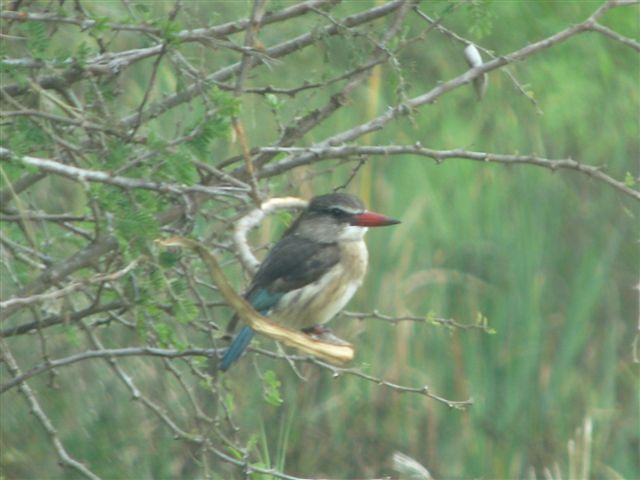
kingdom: Animalia
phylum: Chordata
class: Aves
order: Coraciiformes
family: Alcedinidae
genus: Halcyon
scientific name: Halcyon albiventris
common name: Brown-hooded kingfisher
